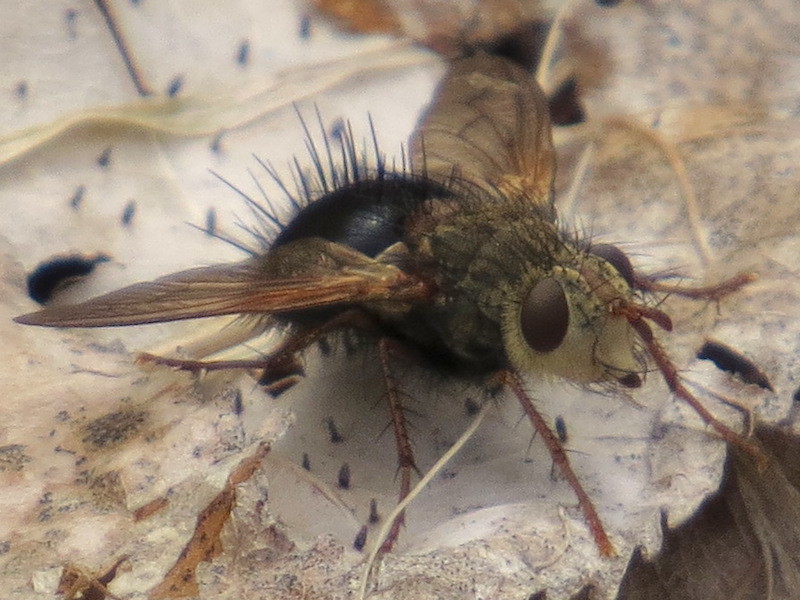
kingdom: Animalia
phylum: Arthropoda
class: Insecta
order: Diptera
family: Tachinidae
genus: Epalpus
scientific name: Epalpus signifer
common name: Early tachinid fly
